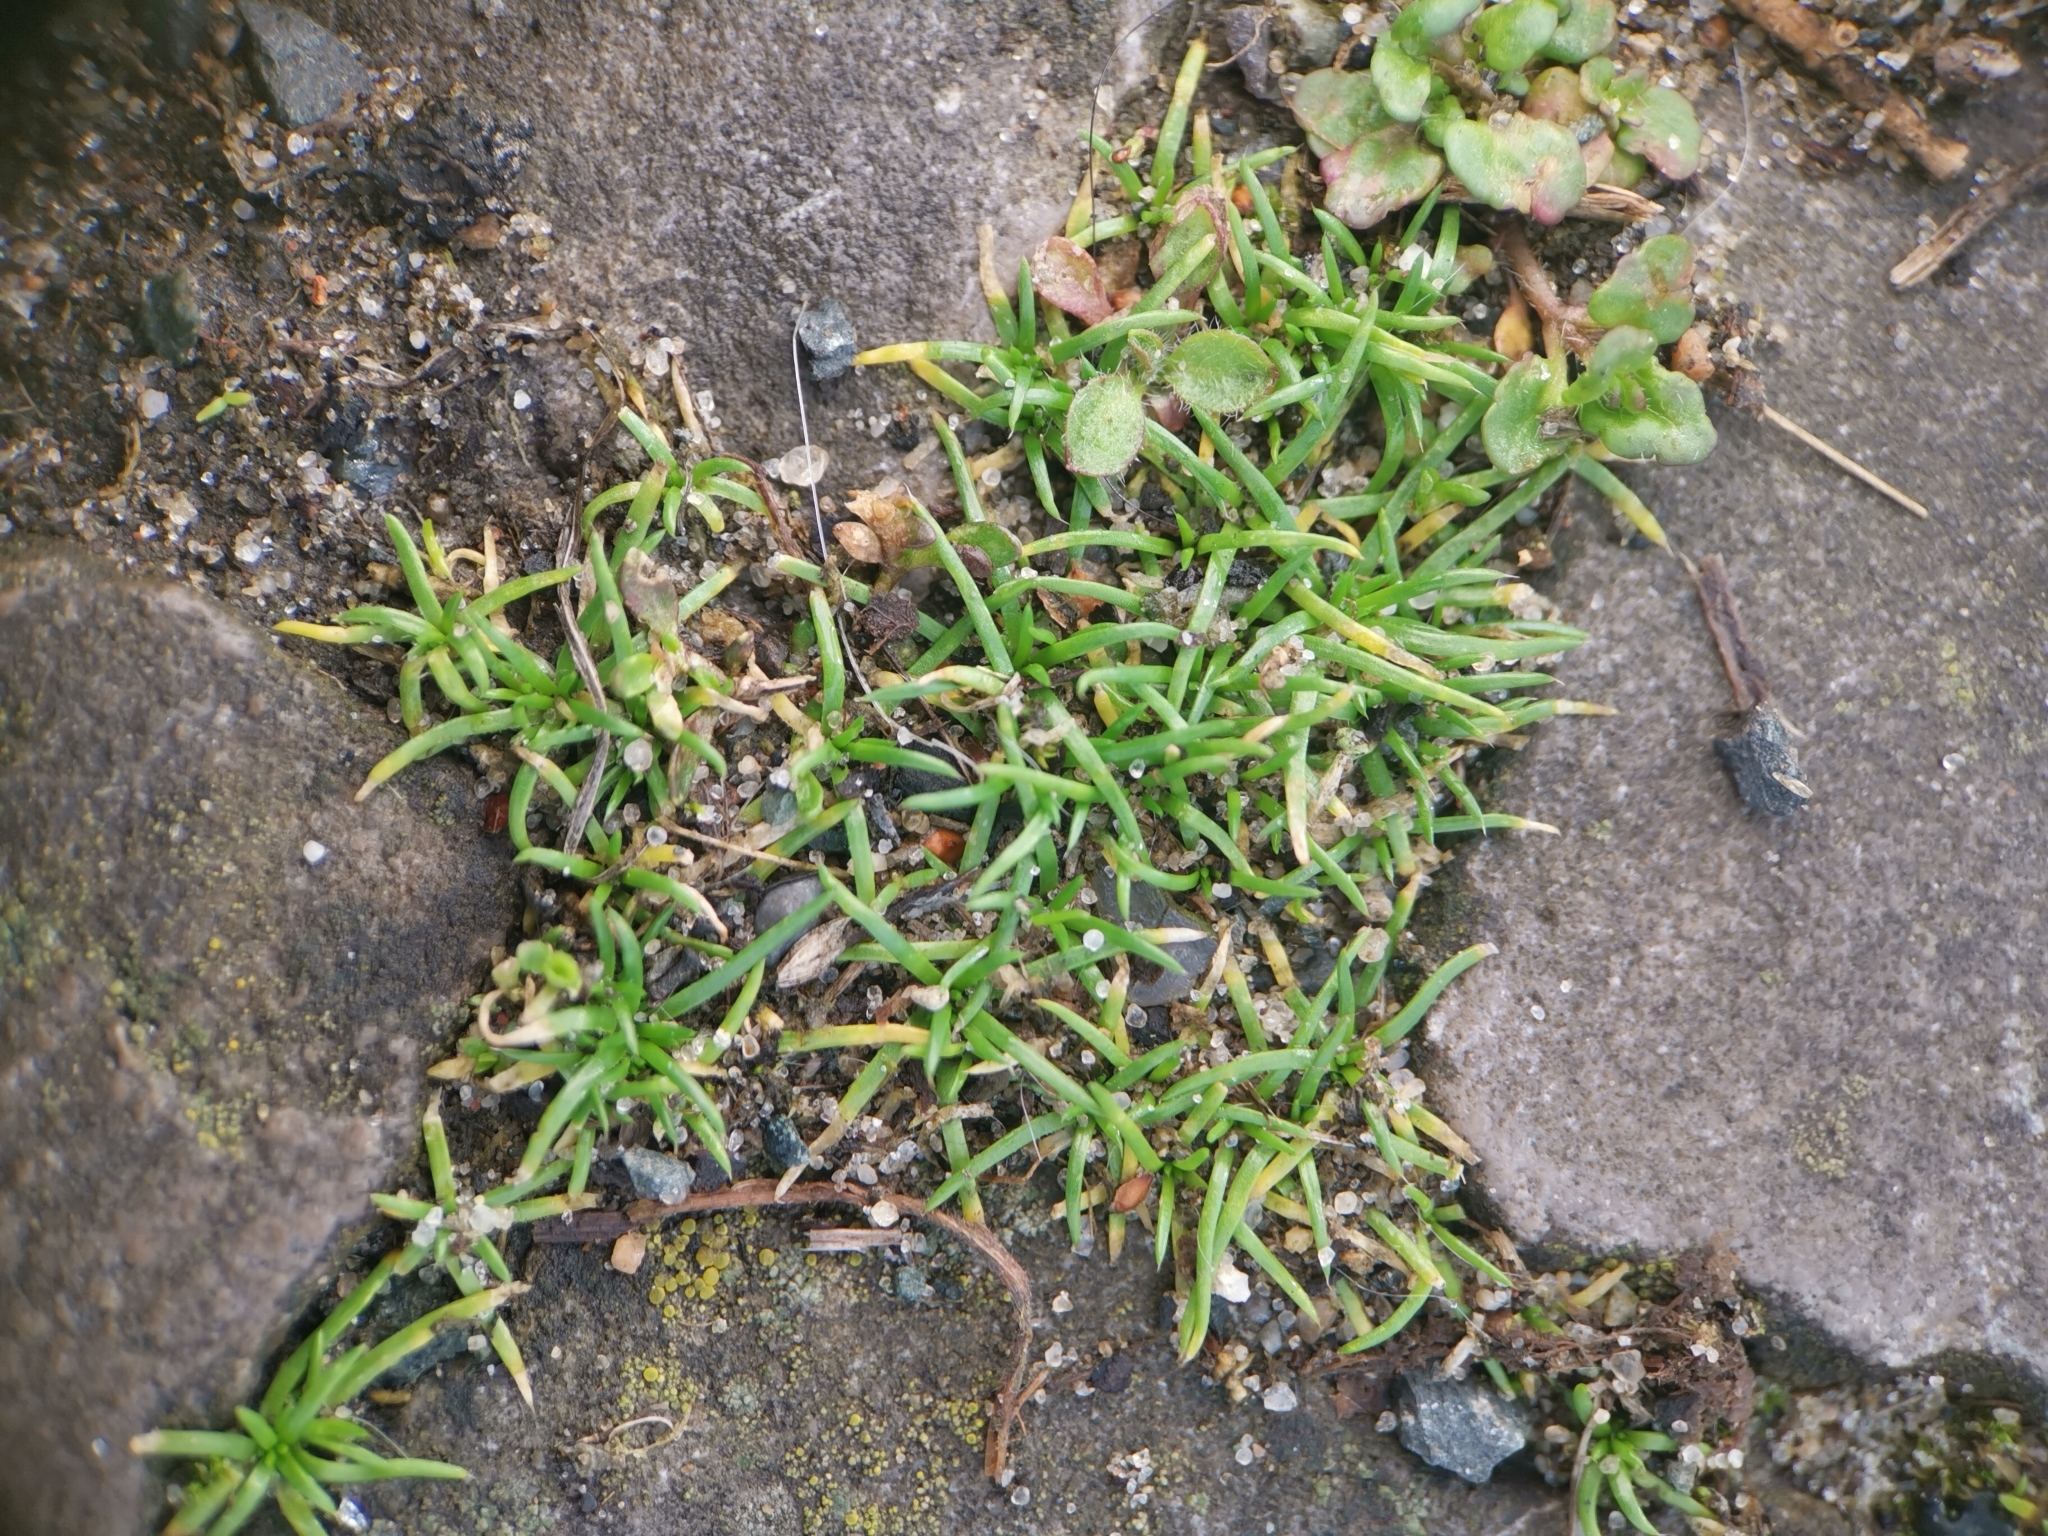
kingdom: Plantae
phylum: Tracheophyta
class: Magnoliopsida
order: Caryophyllales
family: Caryophyllaceae
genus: Sagina
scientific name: Sagina procumbens
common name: Procumbent pearlwort
